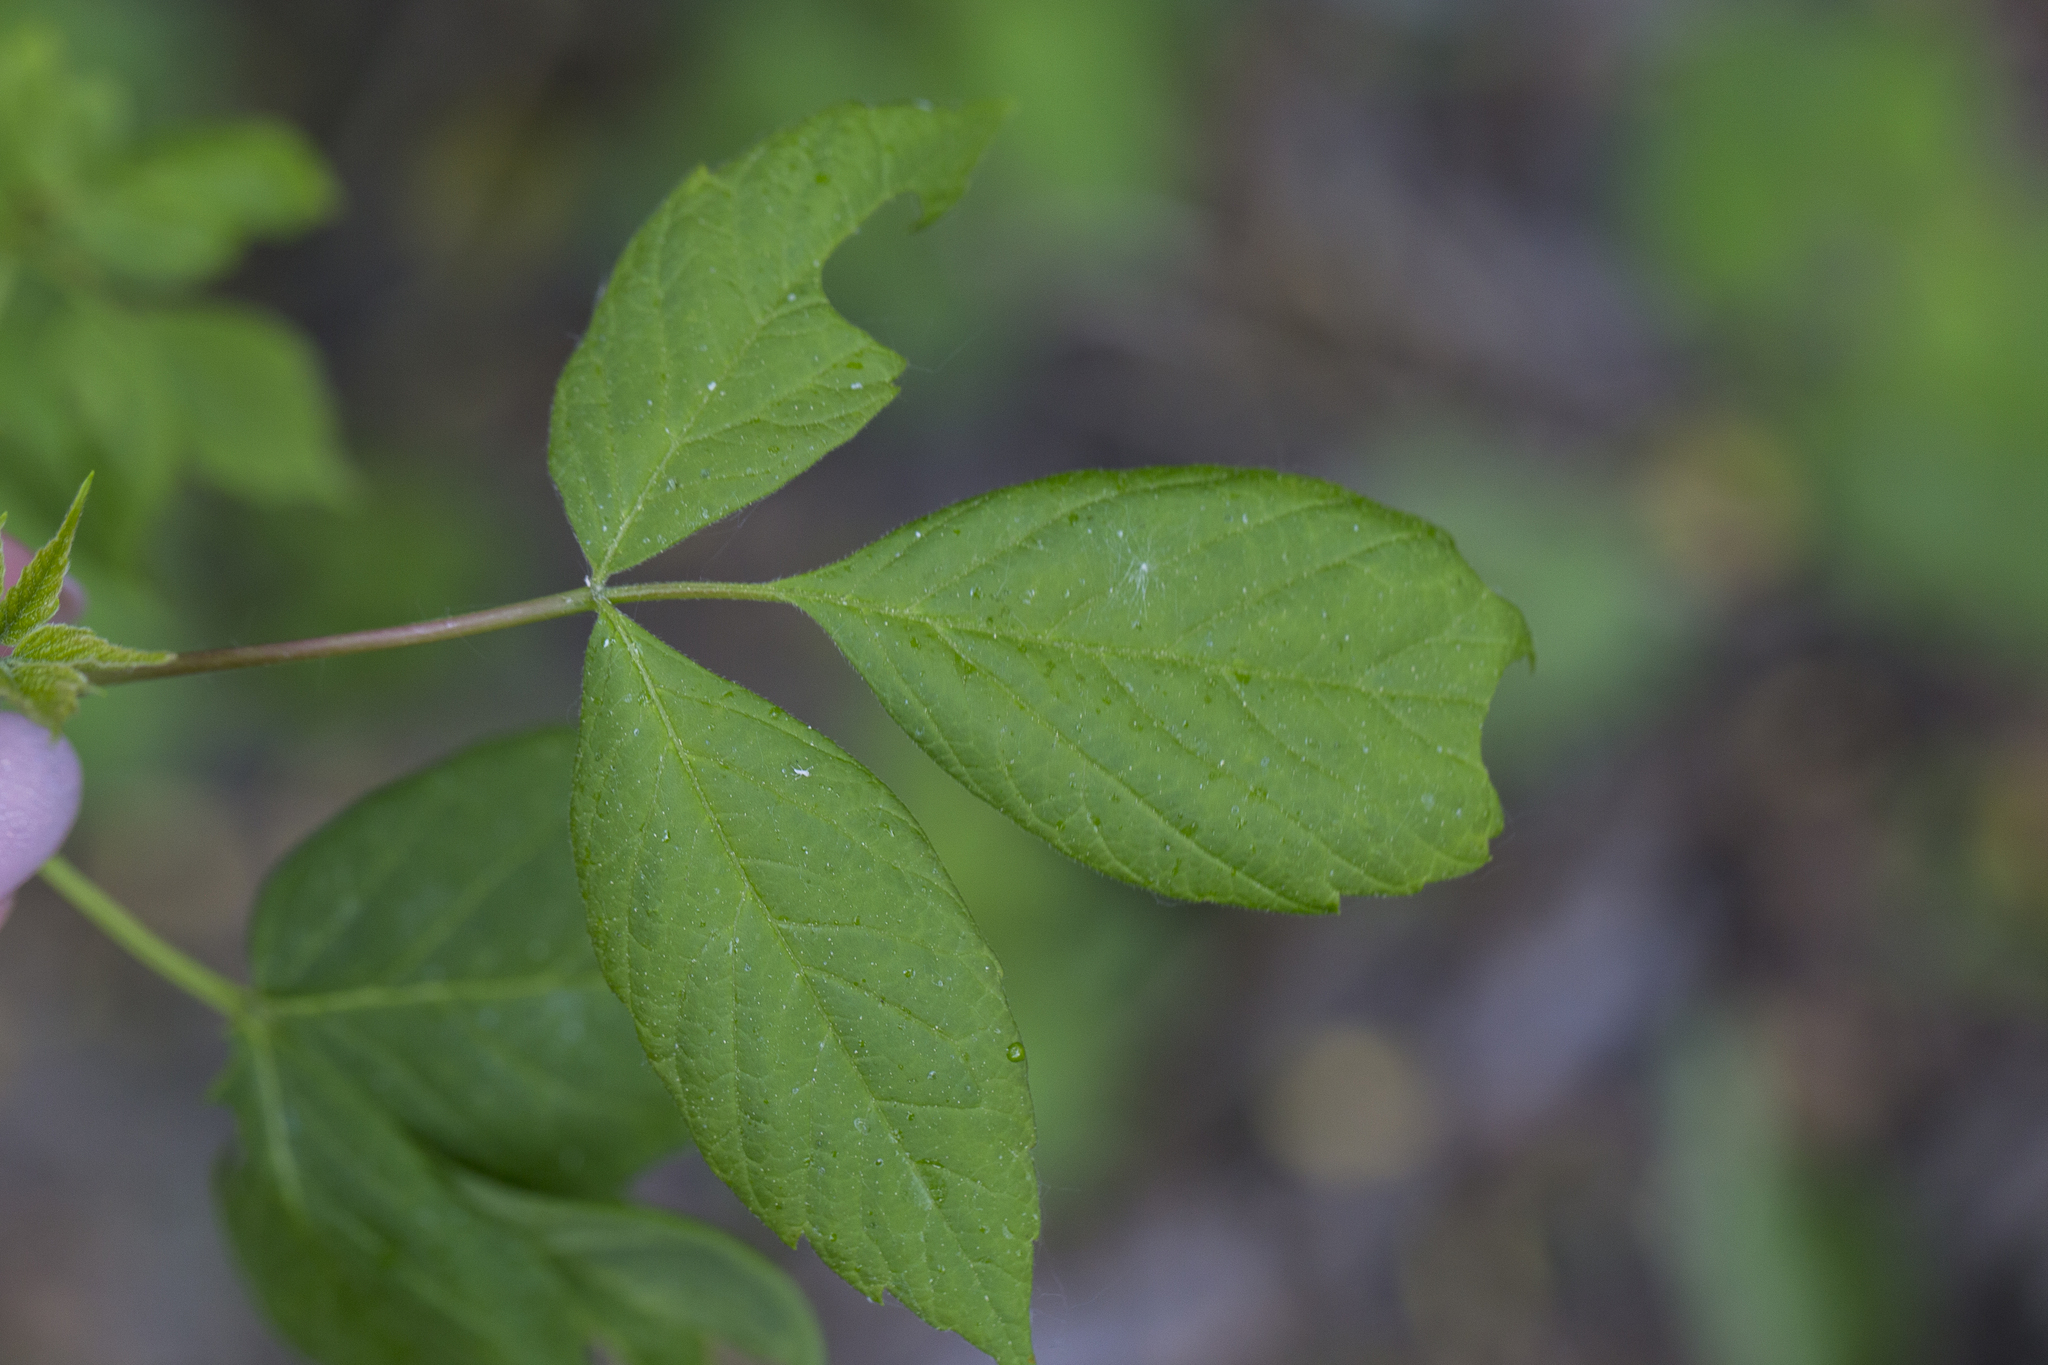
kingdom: Plantae
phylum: Tracheophyta
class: Magnoliopsida
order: Sapindales
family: Sapindaceae
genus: Acer
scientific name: Acer negundo
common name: Ashleaf maple
